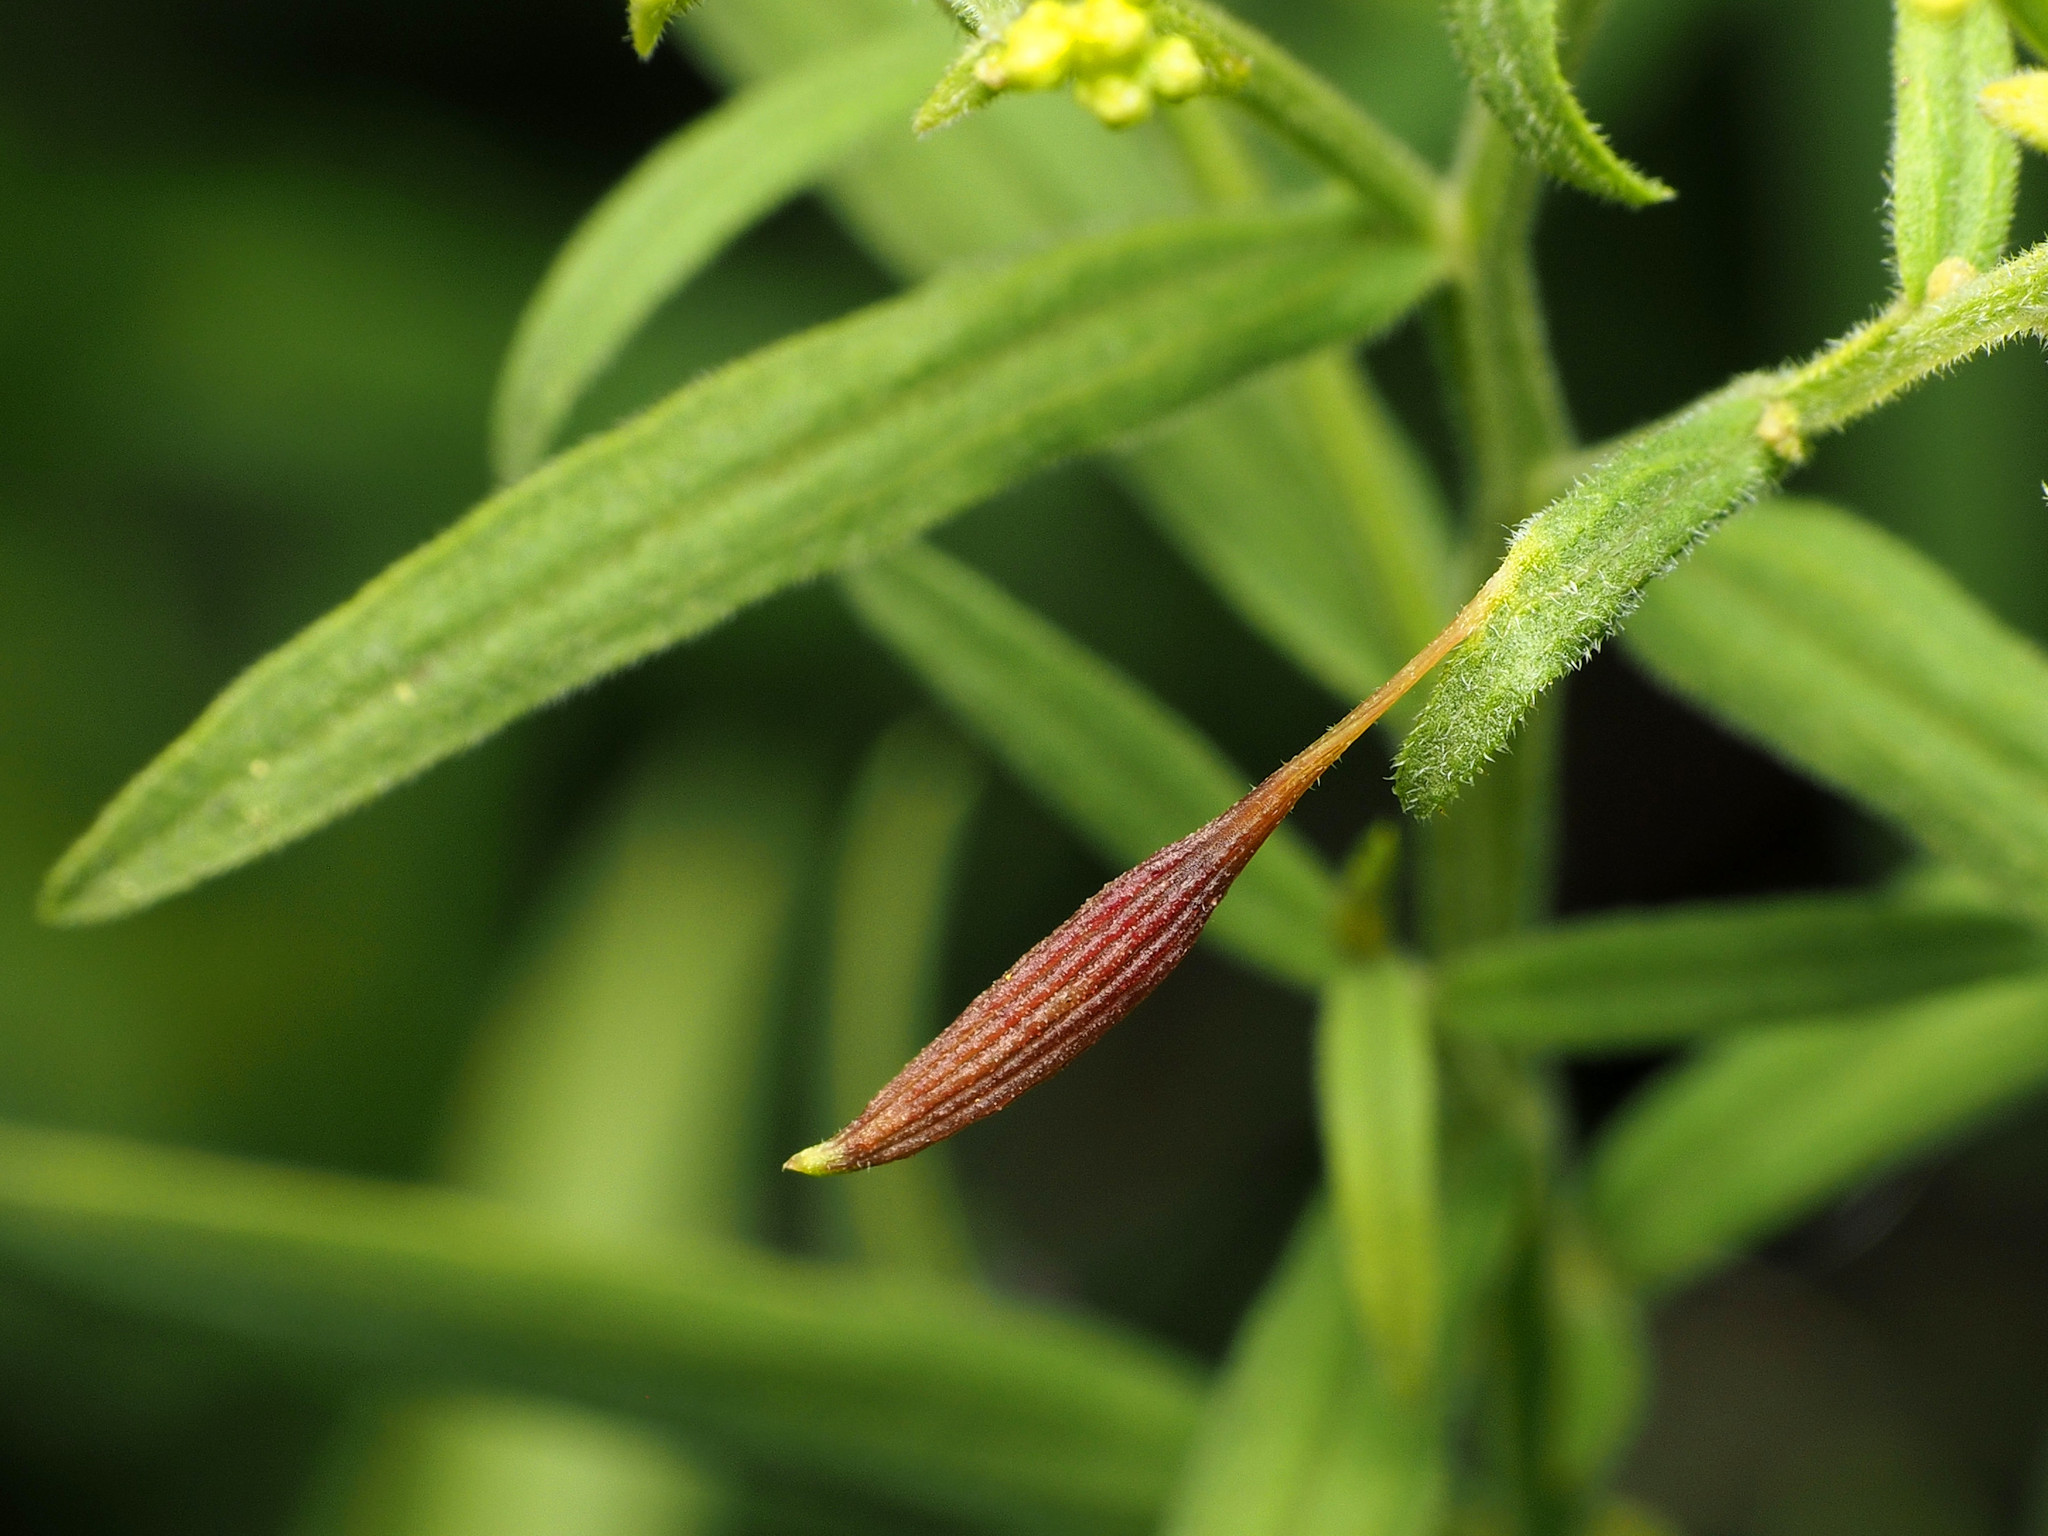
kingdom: Animalia
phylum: Arthropoda
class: Insecta
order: Diptera
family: Cecidomyiidae
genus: Rhopalomyia
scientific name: Rhopalomyia pedicellata
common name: Goldentop pedicellate gall midge
